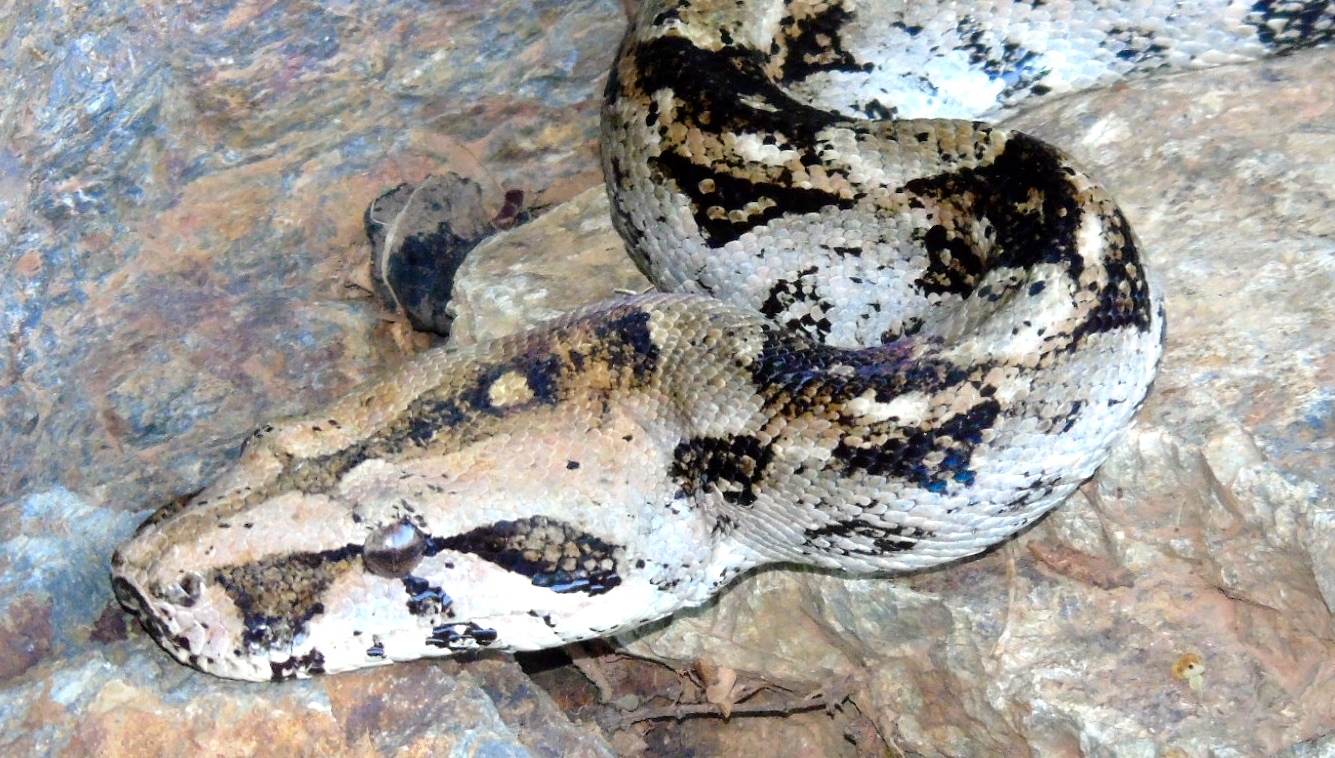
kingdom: Animalia
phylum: Chordata
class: Squamata
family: Boidae
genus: Boa
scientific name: Boa
